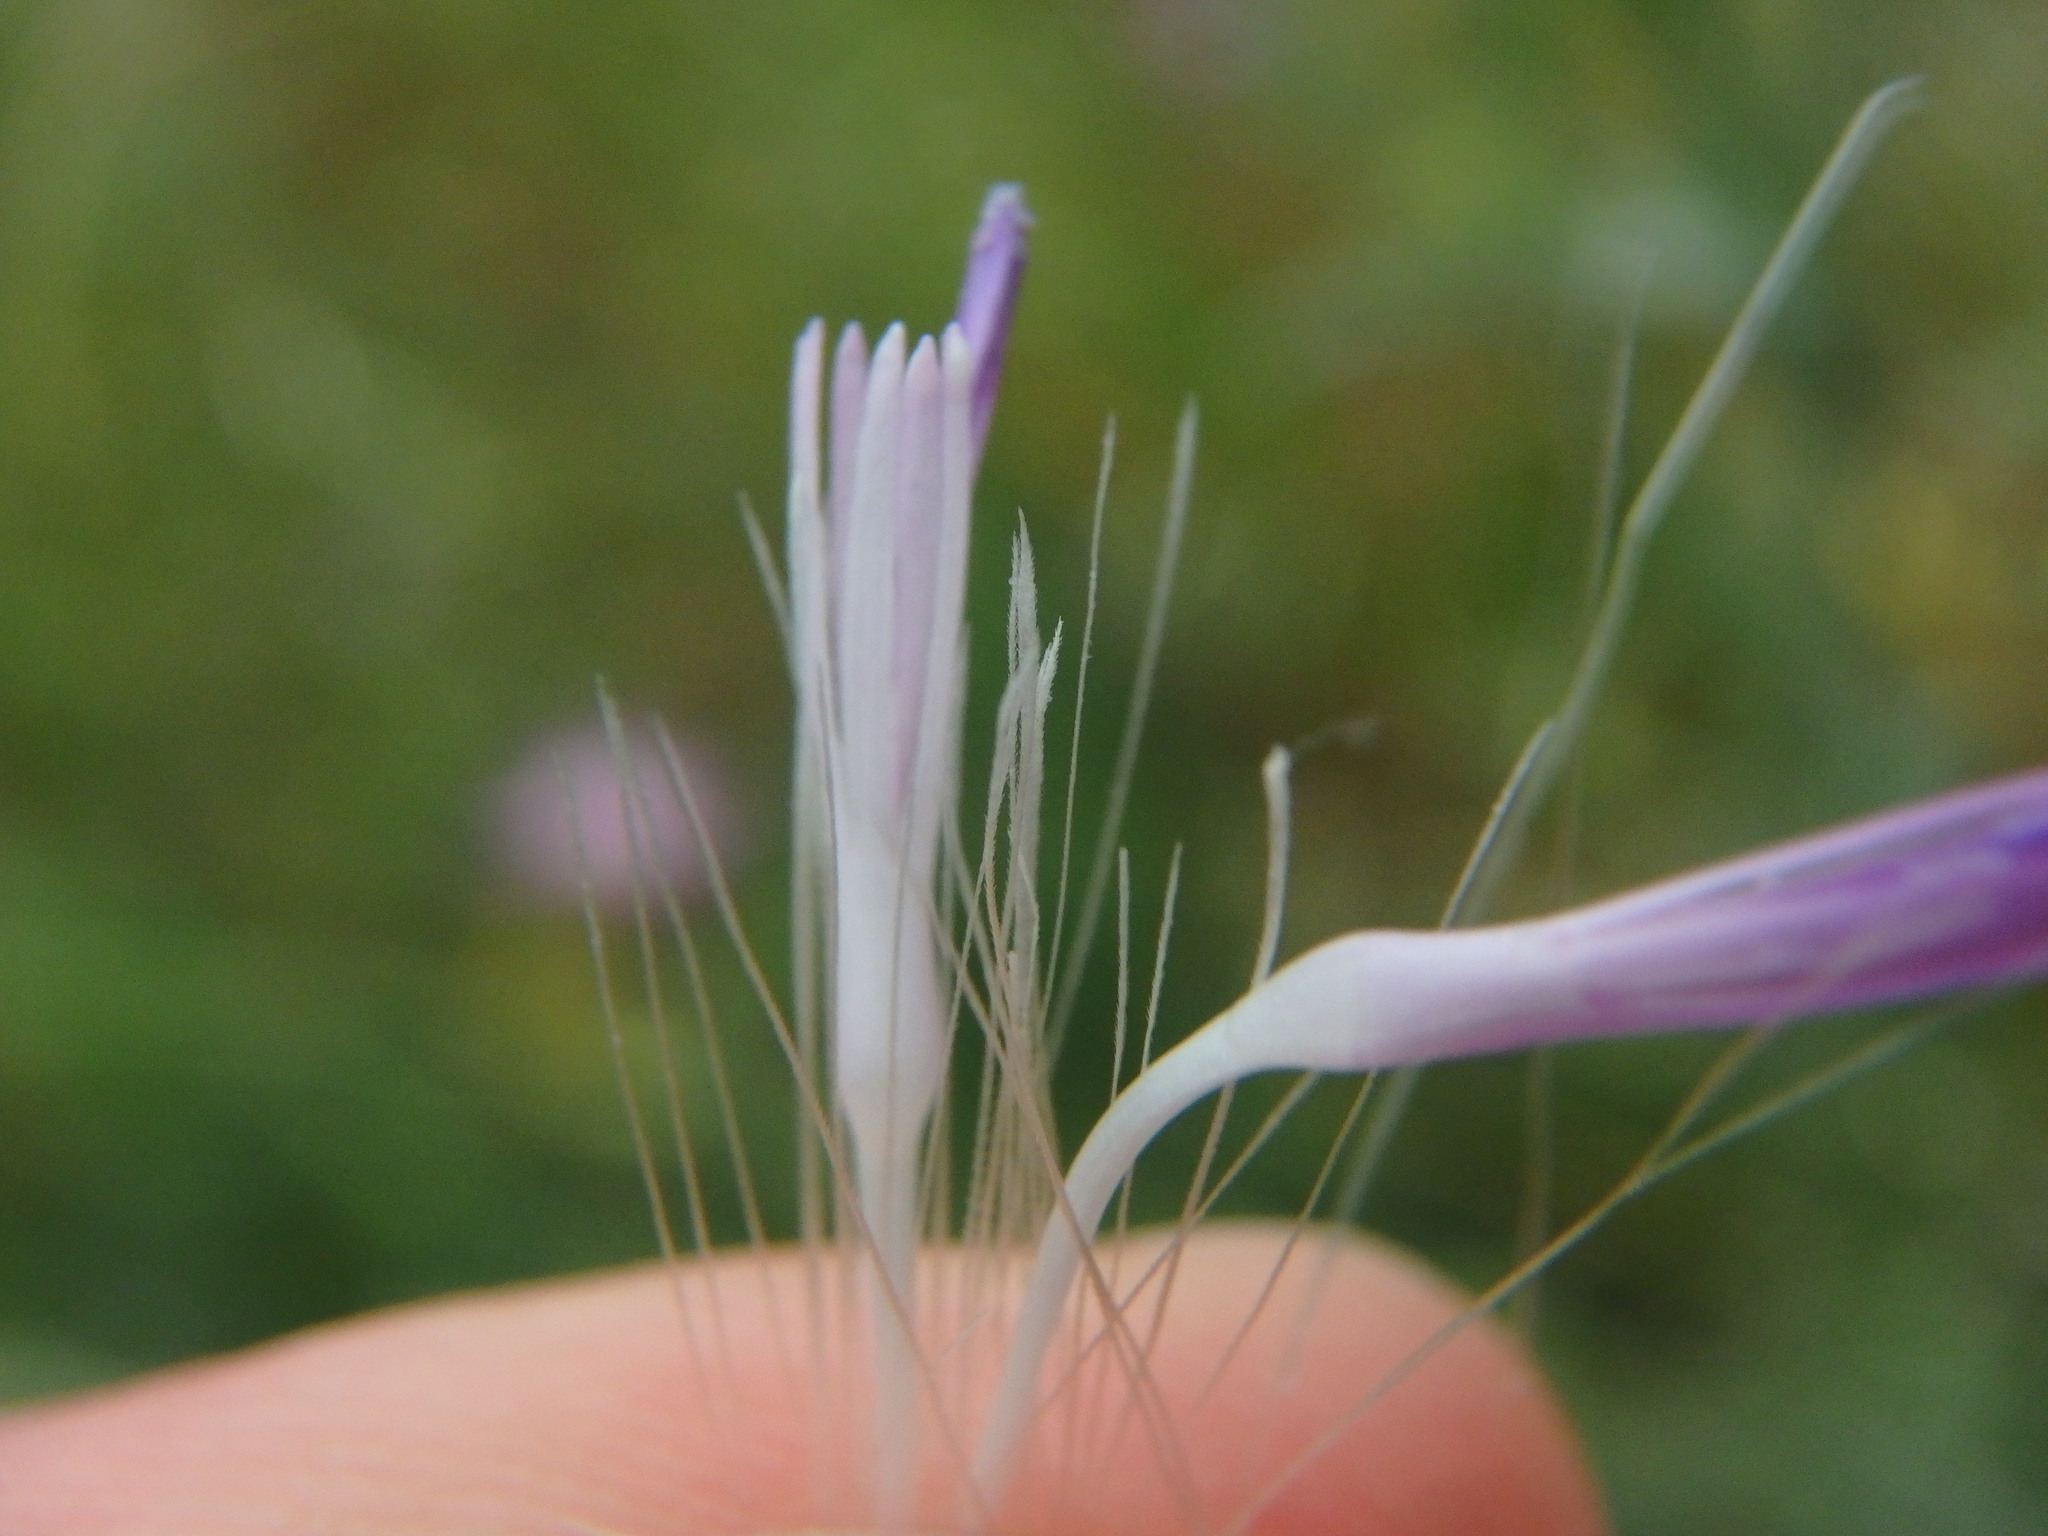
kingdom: Plantae
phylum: Tracheophyta
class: Magnoliopsida
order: Asterales
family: Asteraceae
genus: Carduus
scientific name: Carduus pycnocephalus
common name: Plymouth thistle
